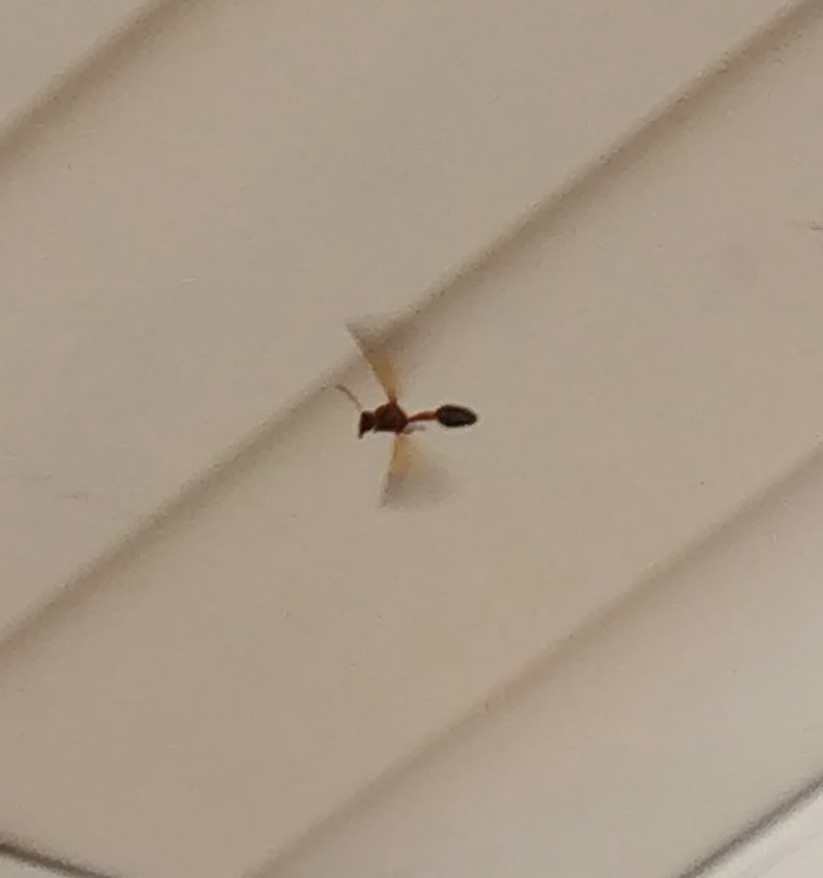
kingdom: Animalia
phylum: Arthropoda
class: Insecta
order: Hymenoptera
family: Eumenidae
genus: Delta
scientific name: Delta dimidiatipenne
